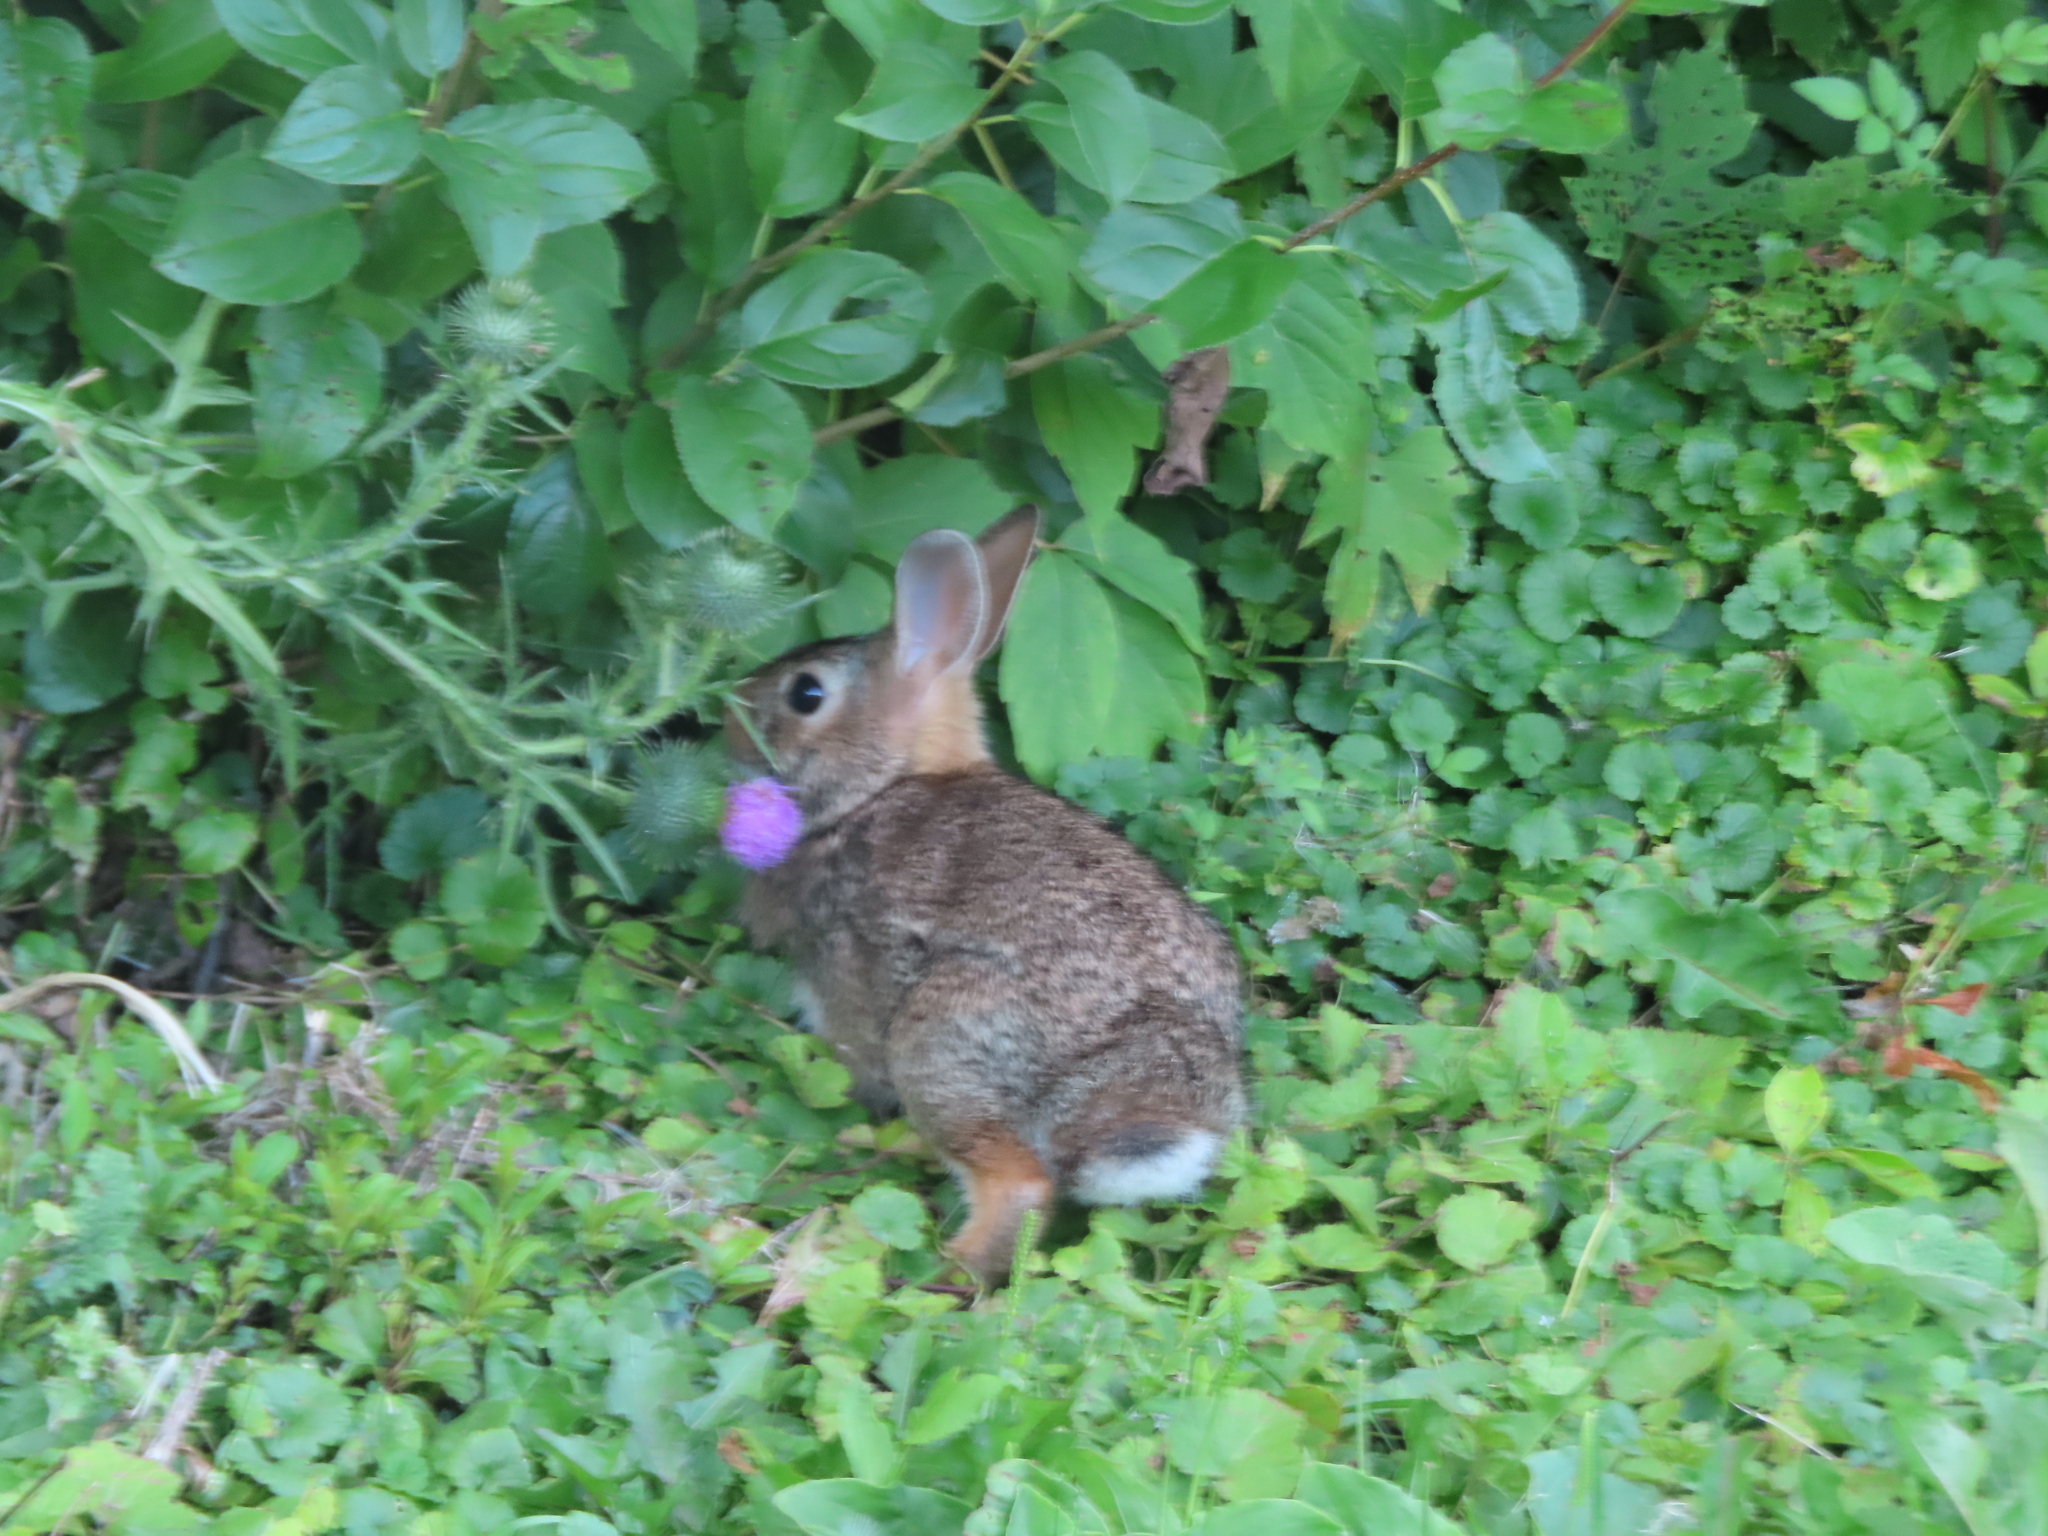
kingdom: Animalia
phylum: Chordata
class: Mammalia
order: Lagomorpha
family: Leporidae
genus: Sylvilagus
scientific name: Sylvilagus floridanus
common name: Eastern cottontail
